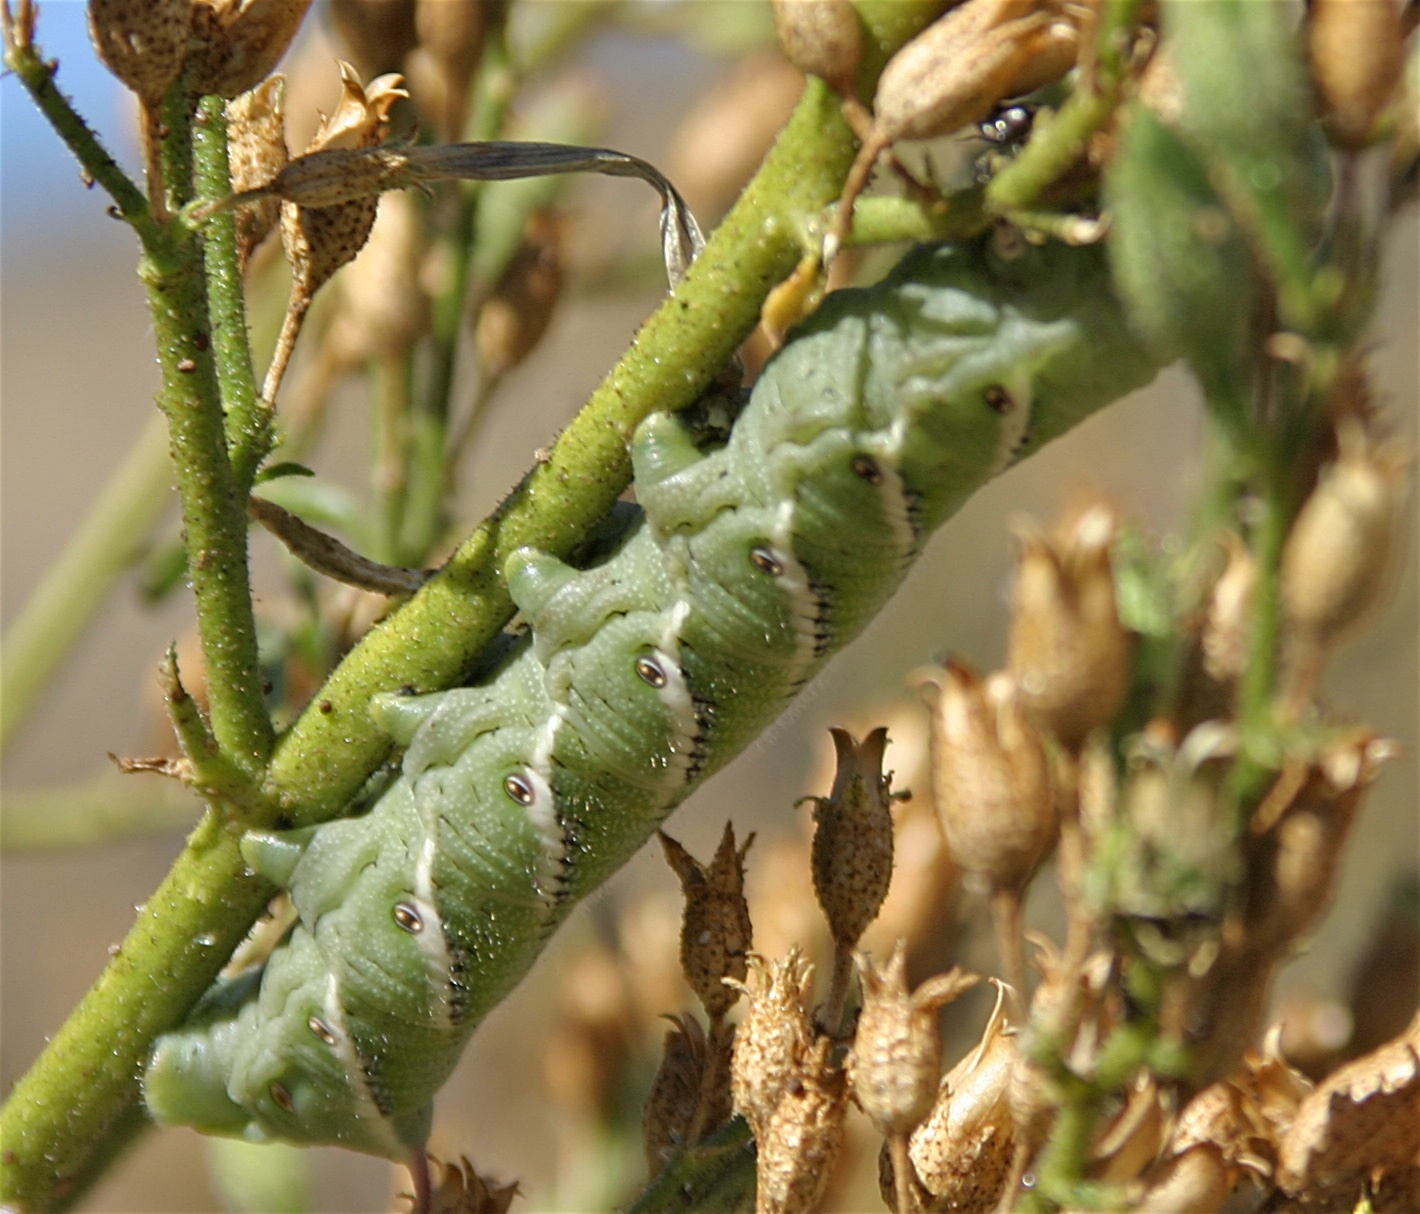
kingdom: Animalia
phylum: Arthropoda
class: Insecta
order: Lepidoptera
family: Sphingidae
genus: Manduca
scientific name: Manduca sexta
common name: Carolina sphinx
